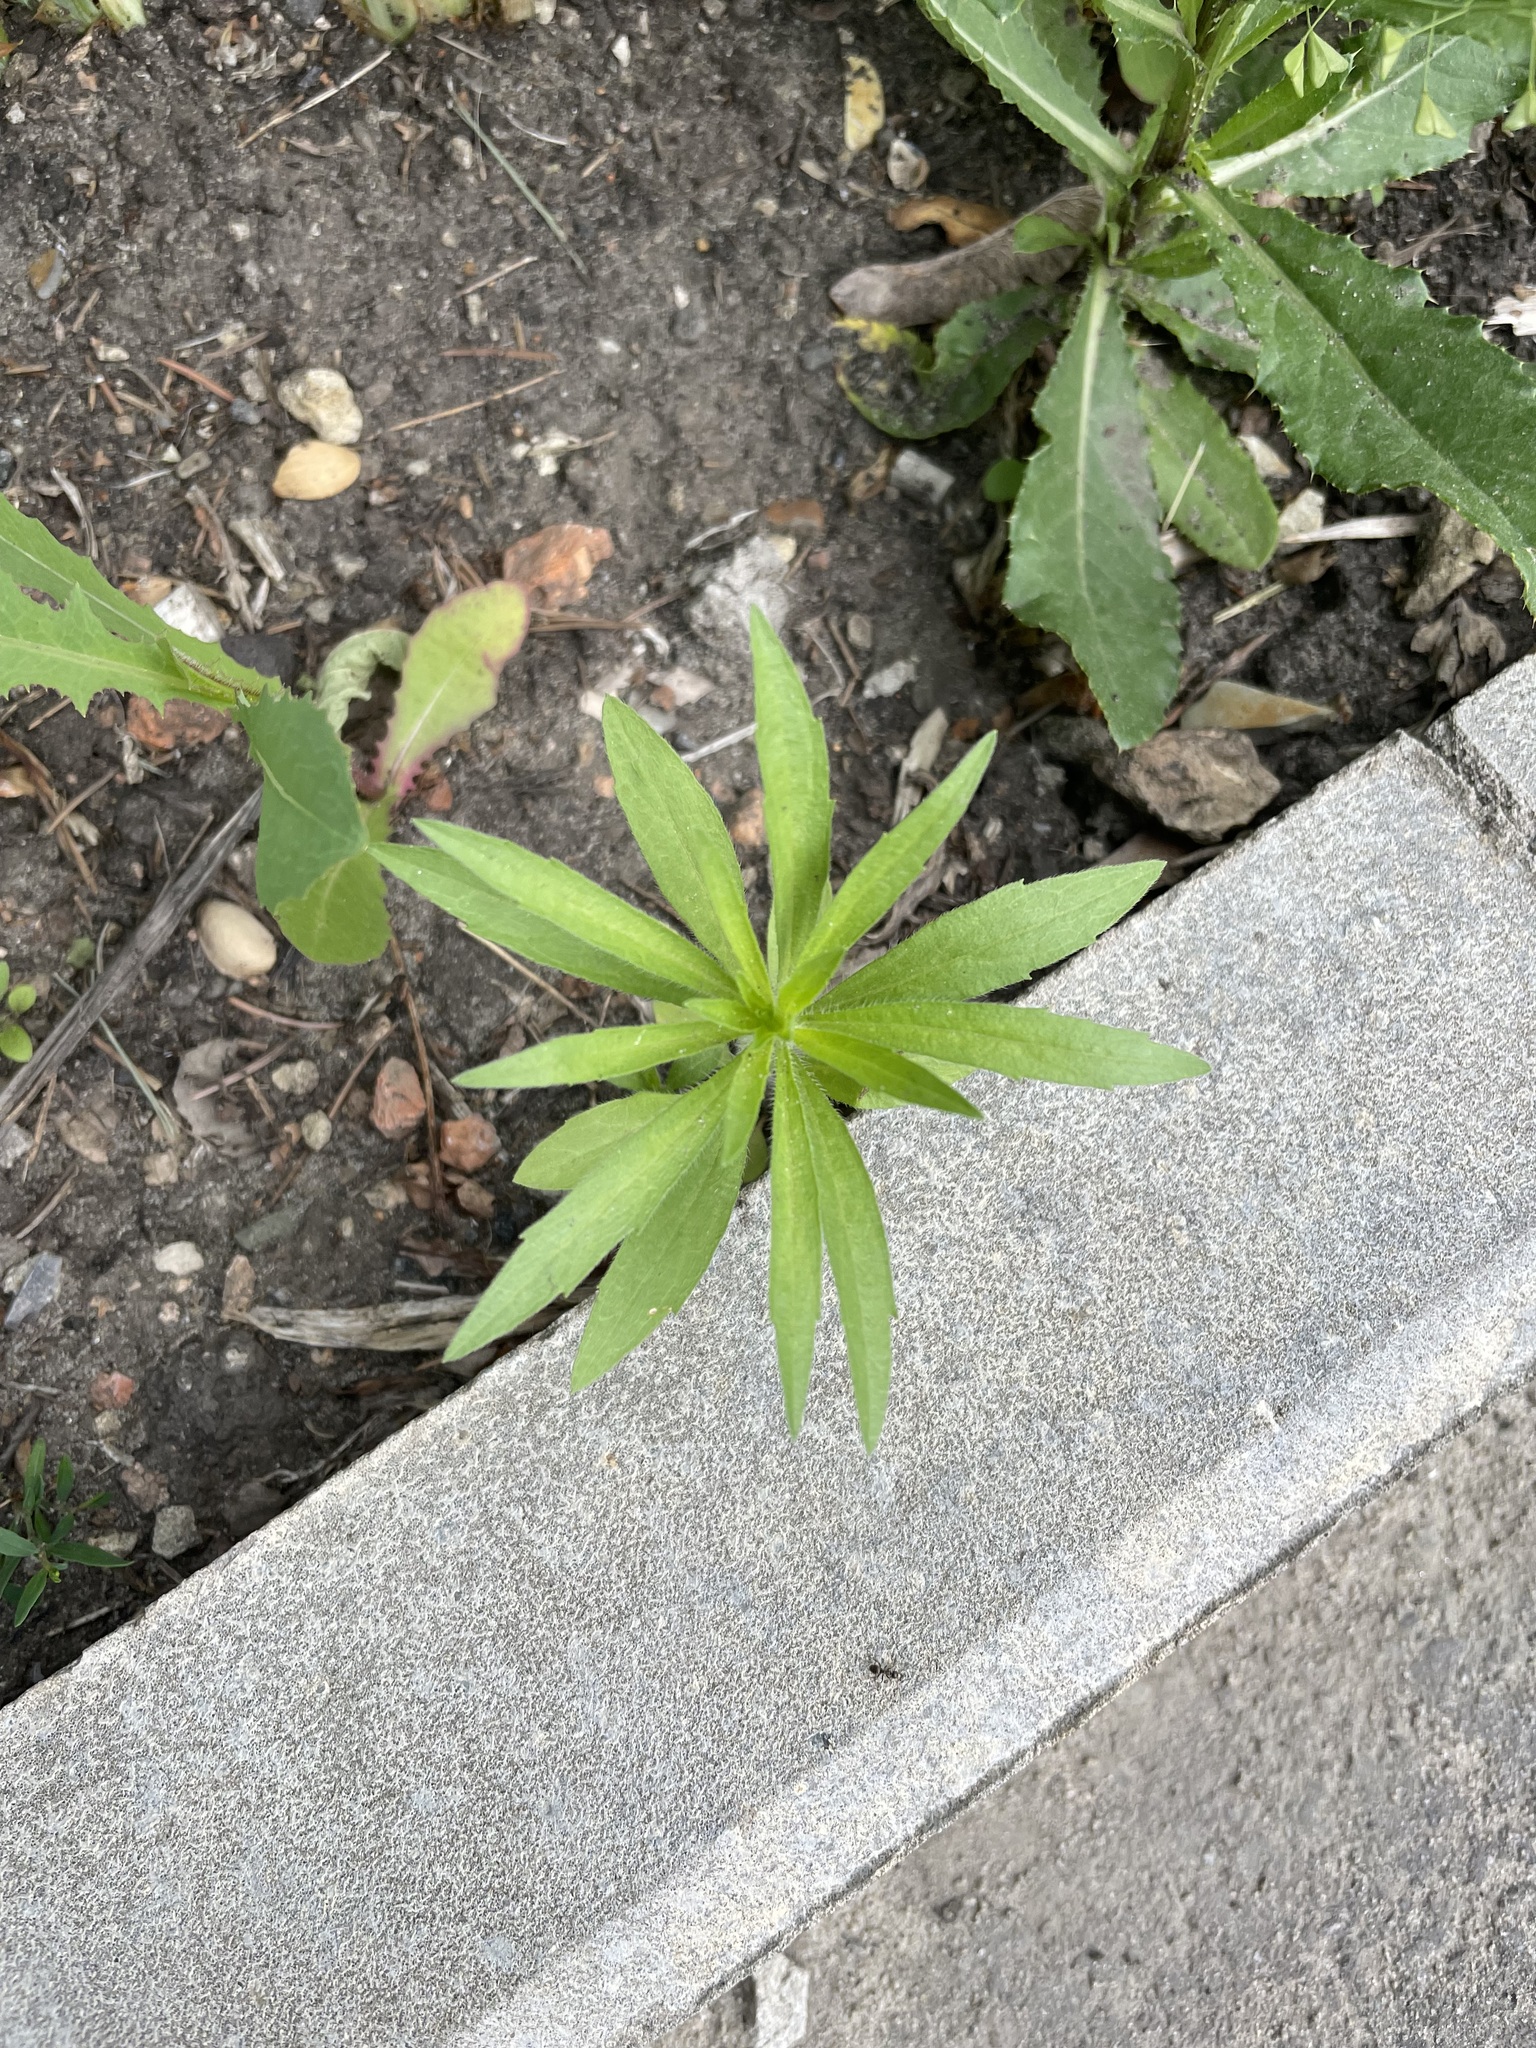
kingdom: Plantae
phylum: Tracheophyta
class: Magnoliopsida
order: Asterales
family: Asteraceae
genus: Erigeron
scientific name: Erigeron canadensis
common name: Canadian fleabane
